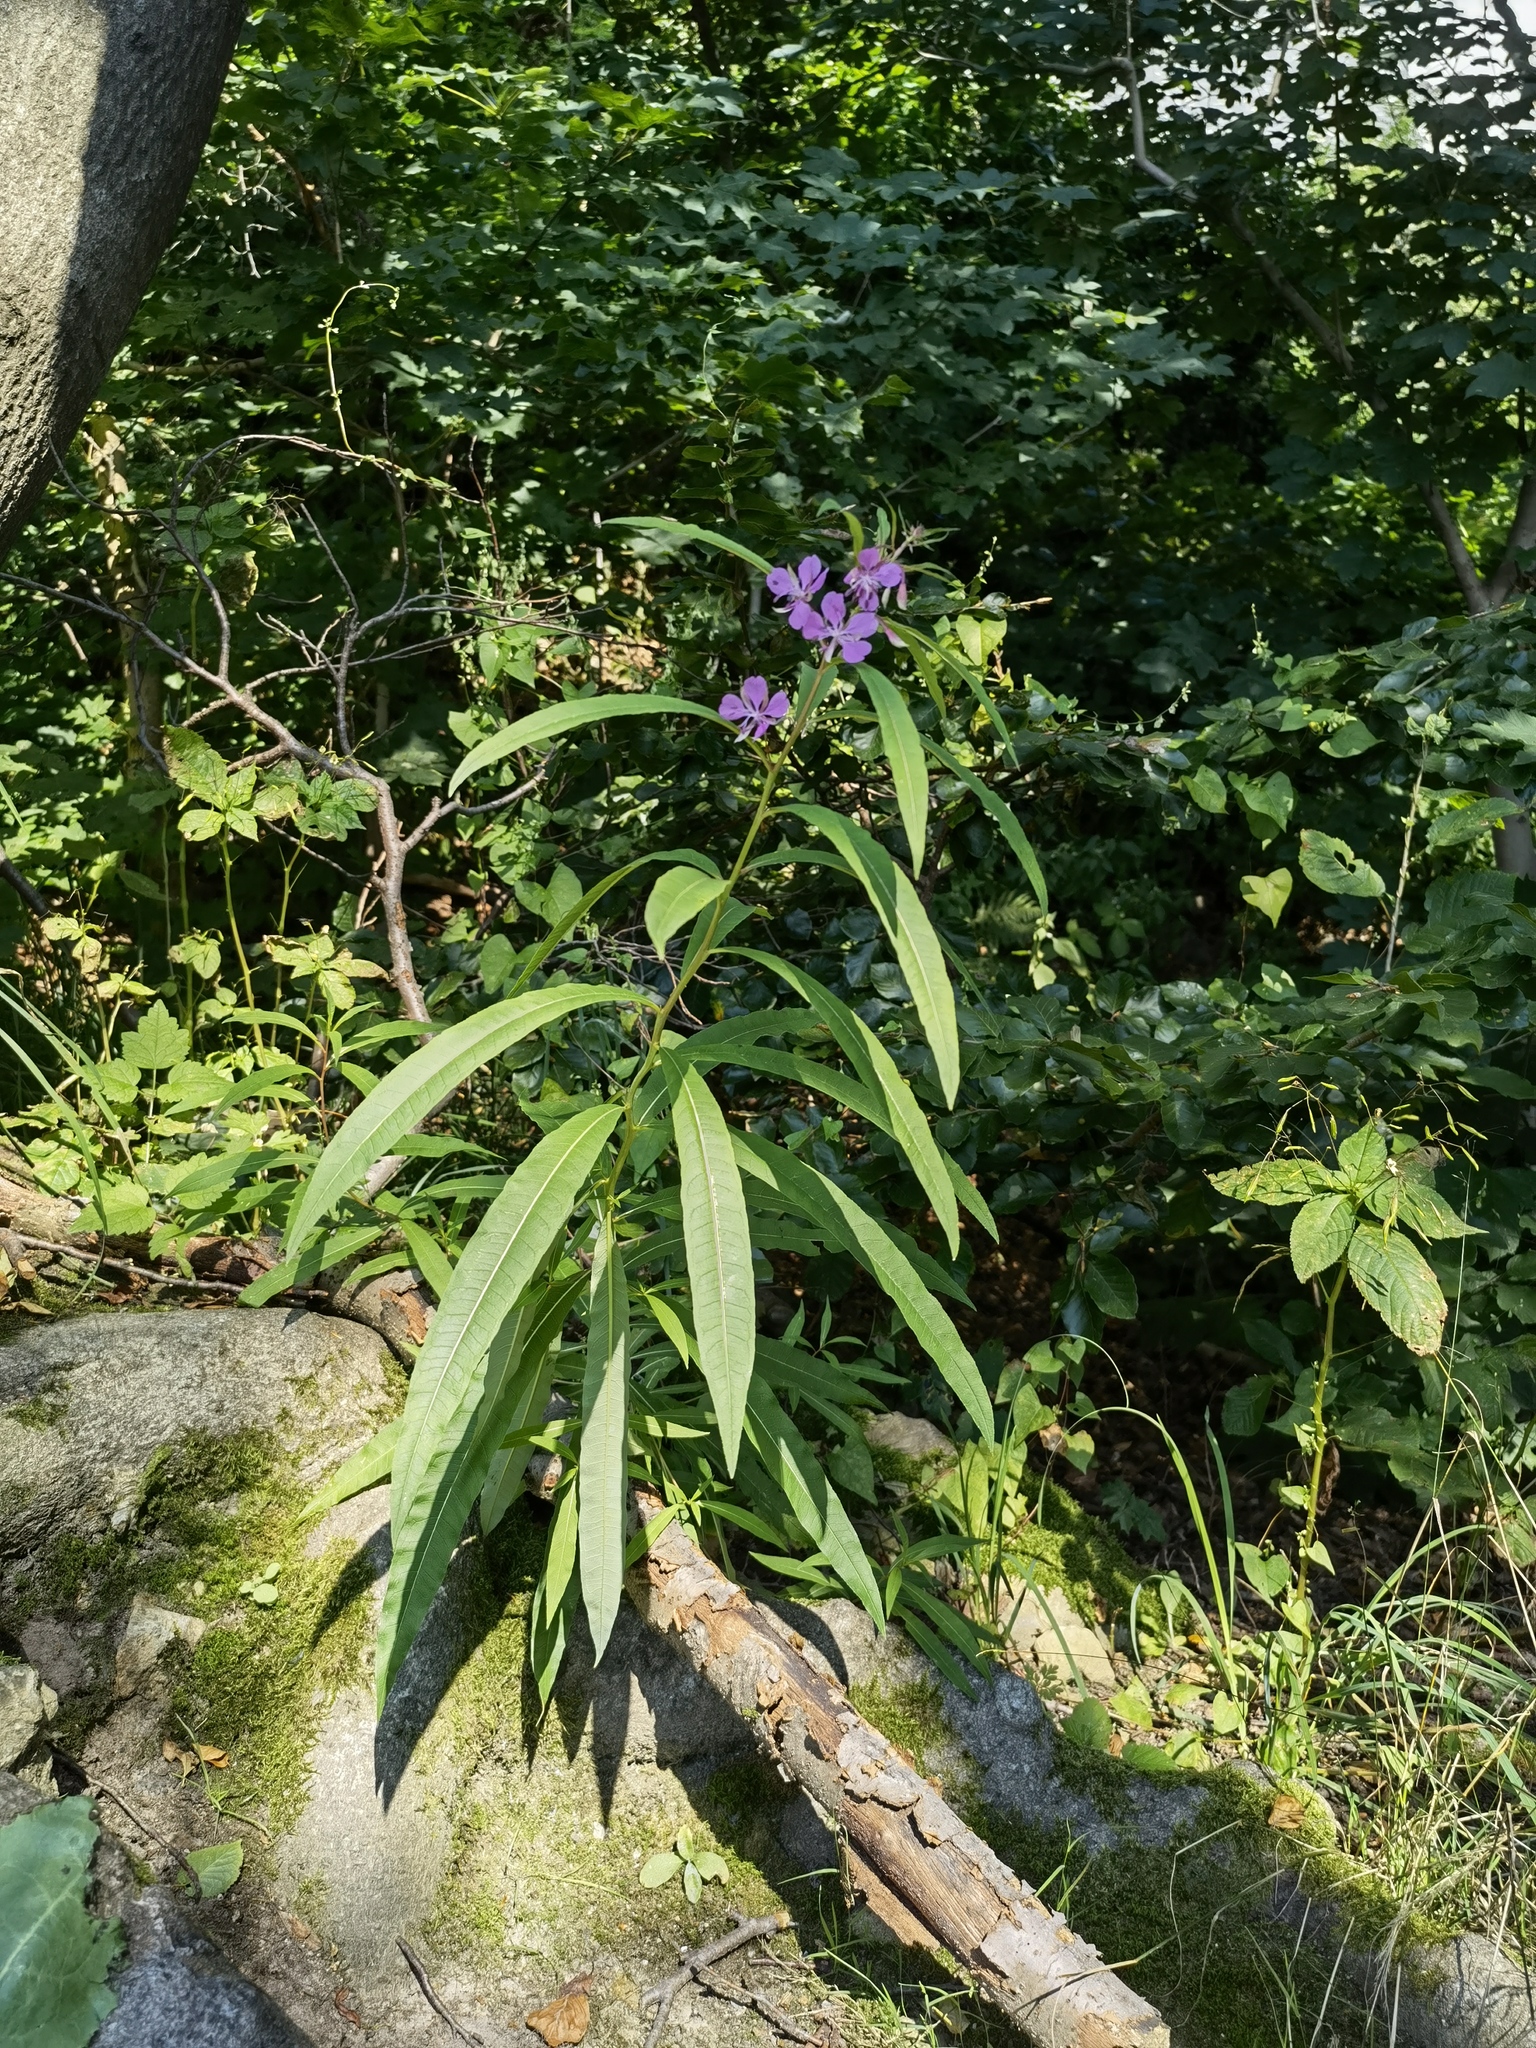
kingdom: Plantae
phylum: Tracheophyta
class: Magnoliopsida
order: Myrtales
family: Onagraceae
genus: Chamaenerion
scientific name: Chamaenerion angustifolium
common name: Fireweed
